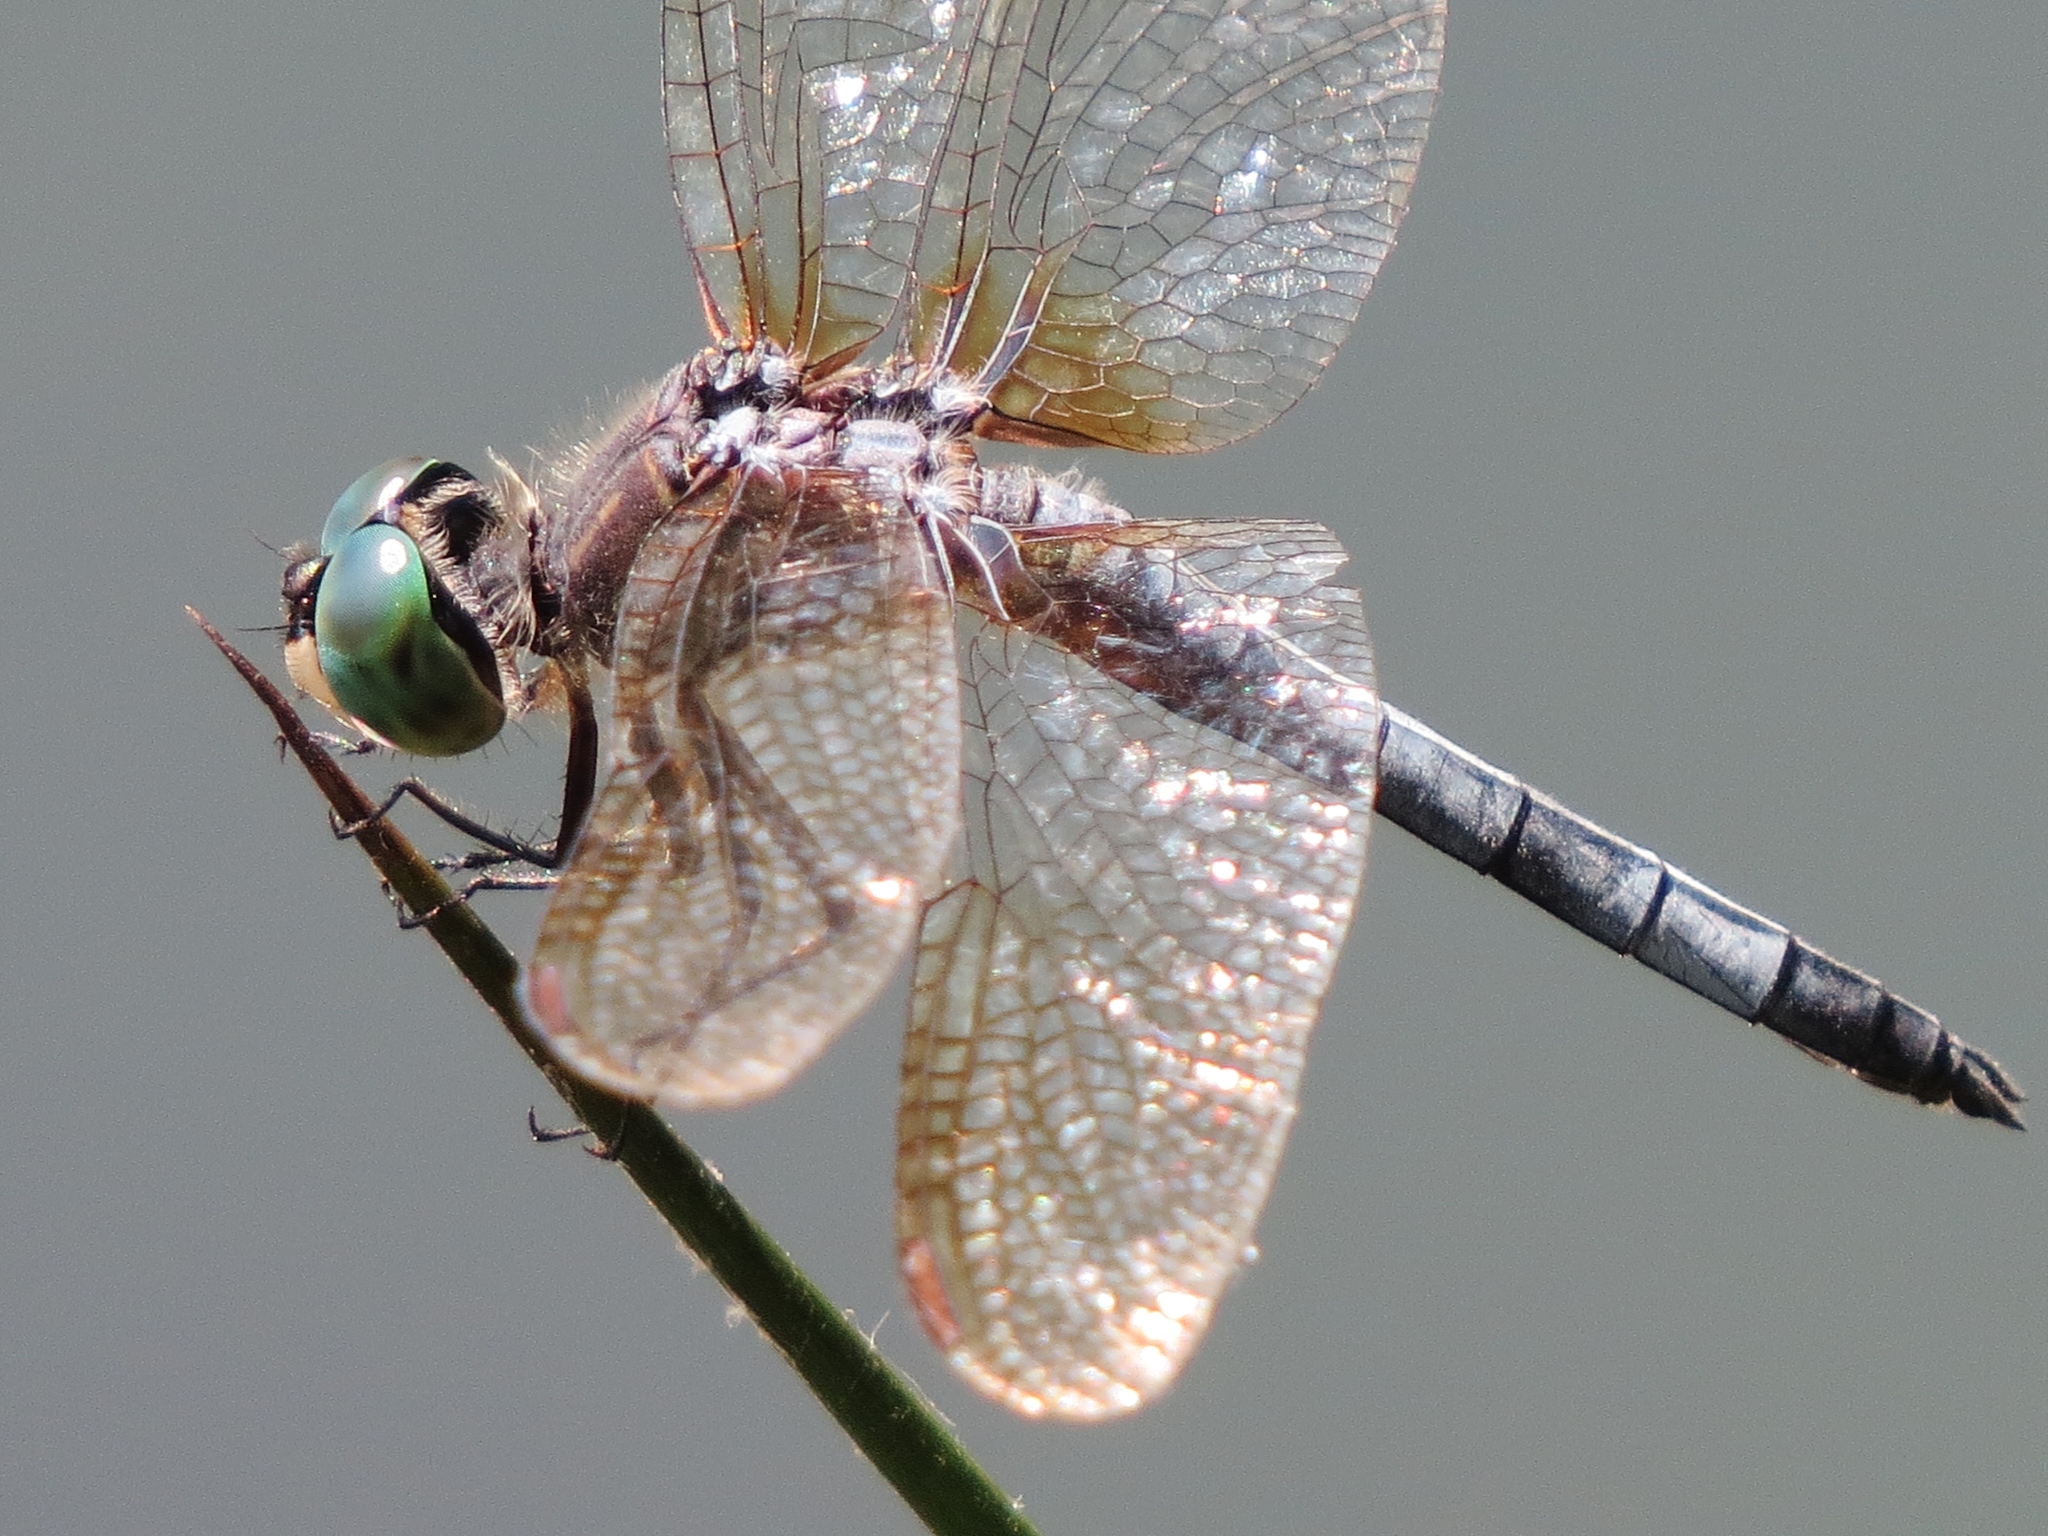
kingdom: Animalia
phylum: Arthropoda
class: Insecta
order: Odonata
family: Libellulidae
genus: Pachydiplax
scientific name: Pachydiplax longipennis
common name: Blue dasher
